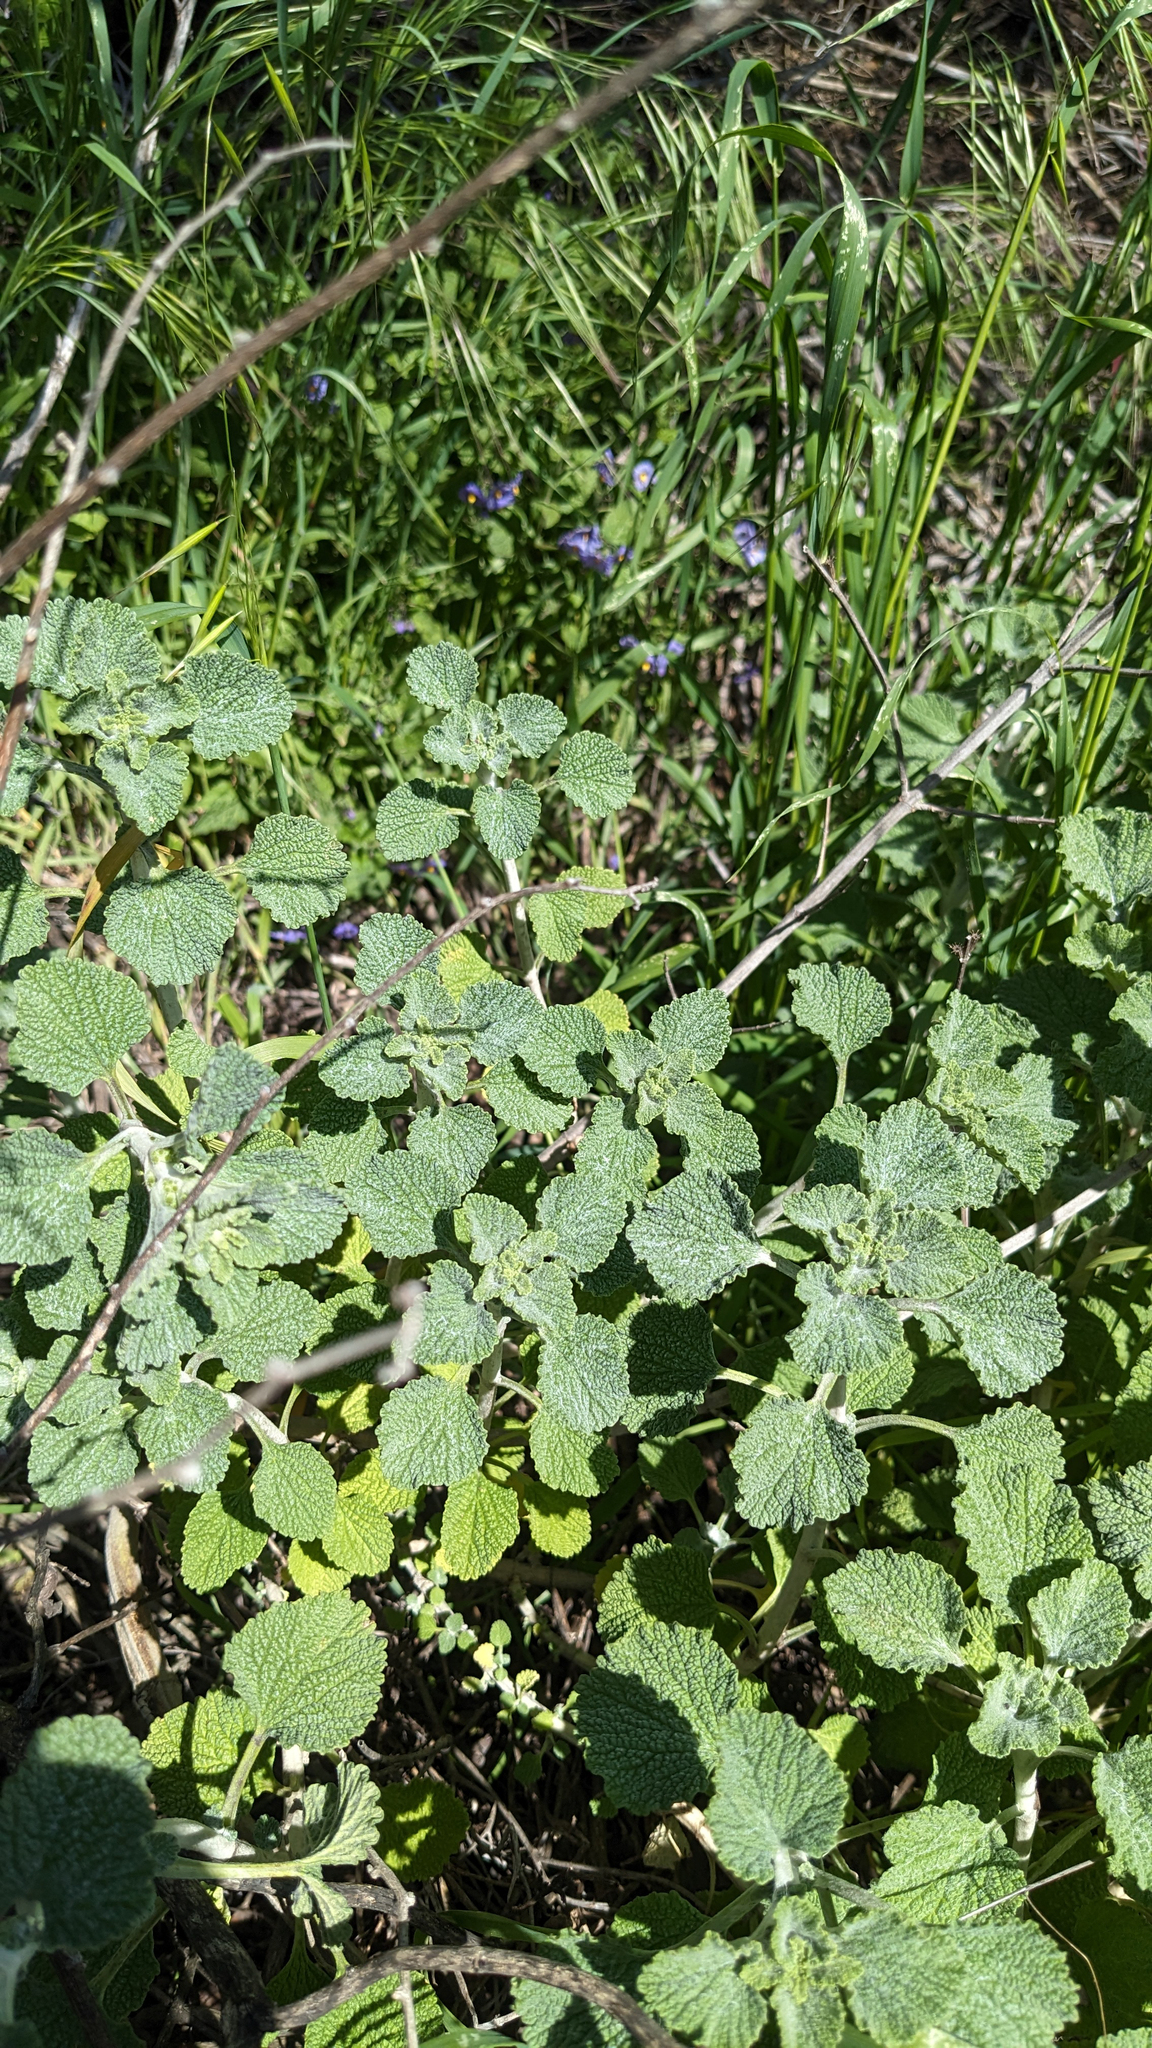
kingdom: Plantae
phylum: Tracheophyta
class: Magnoliopsida
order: Lamiales
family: Lamiaceae
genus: Marrubium
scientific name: Marrubium vulgare
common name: Horehound
